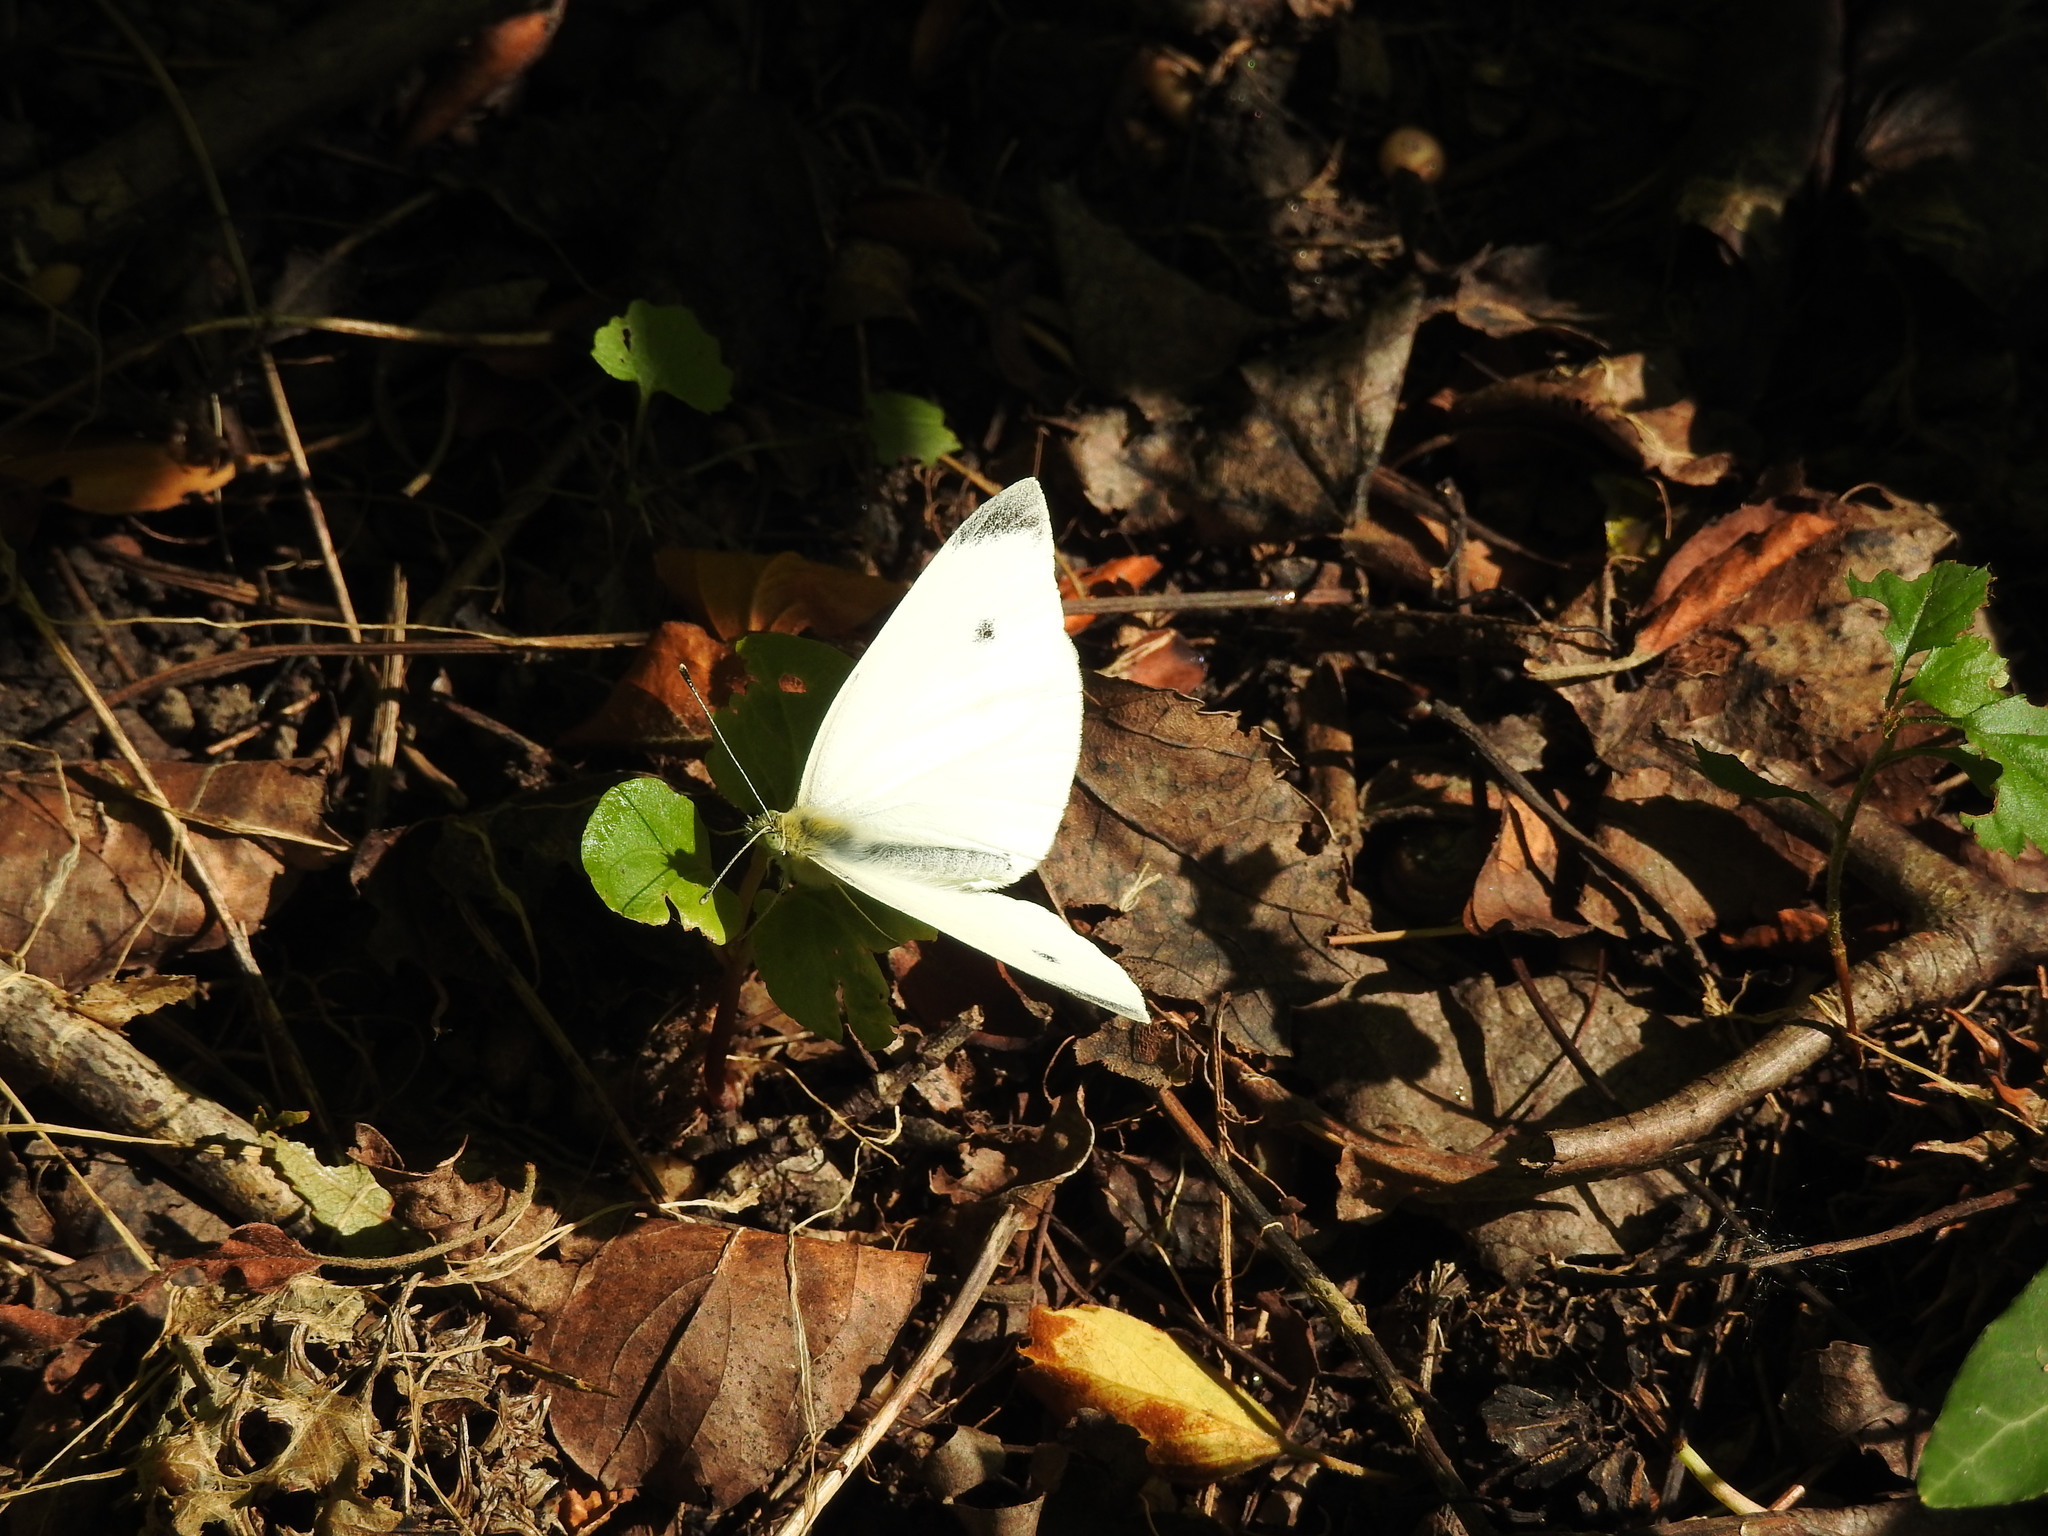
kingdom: Animalia
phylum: Arthropoda
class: Insecta
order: Lepidoptera
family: Pieridae
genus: Pieris
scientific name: Pieris rapae
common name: Small white
